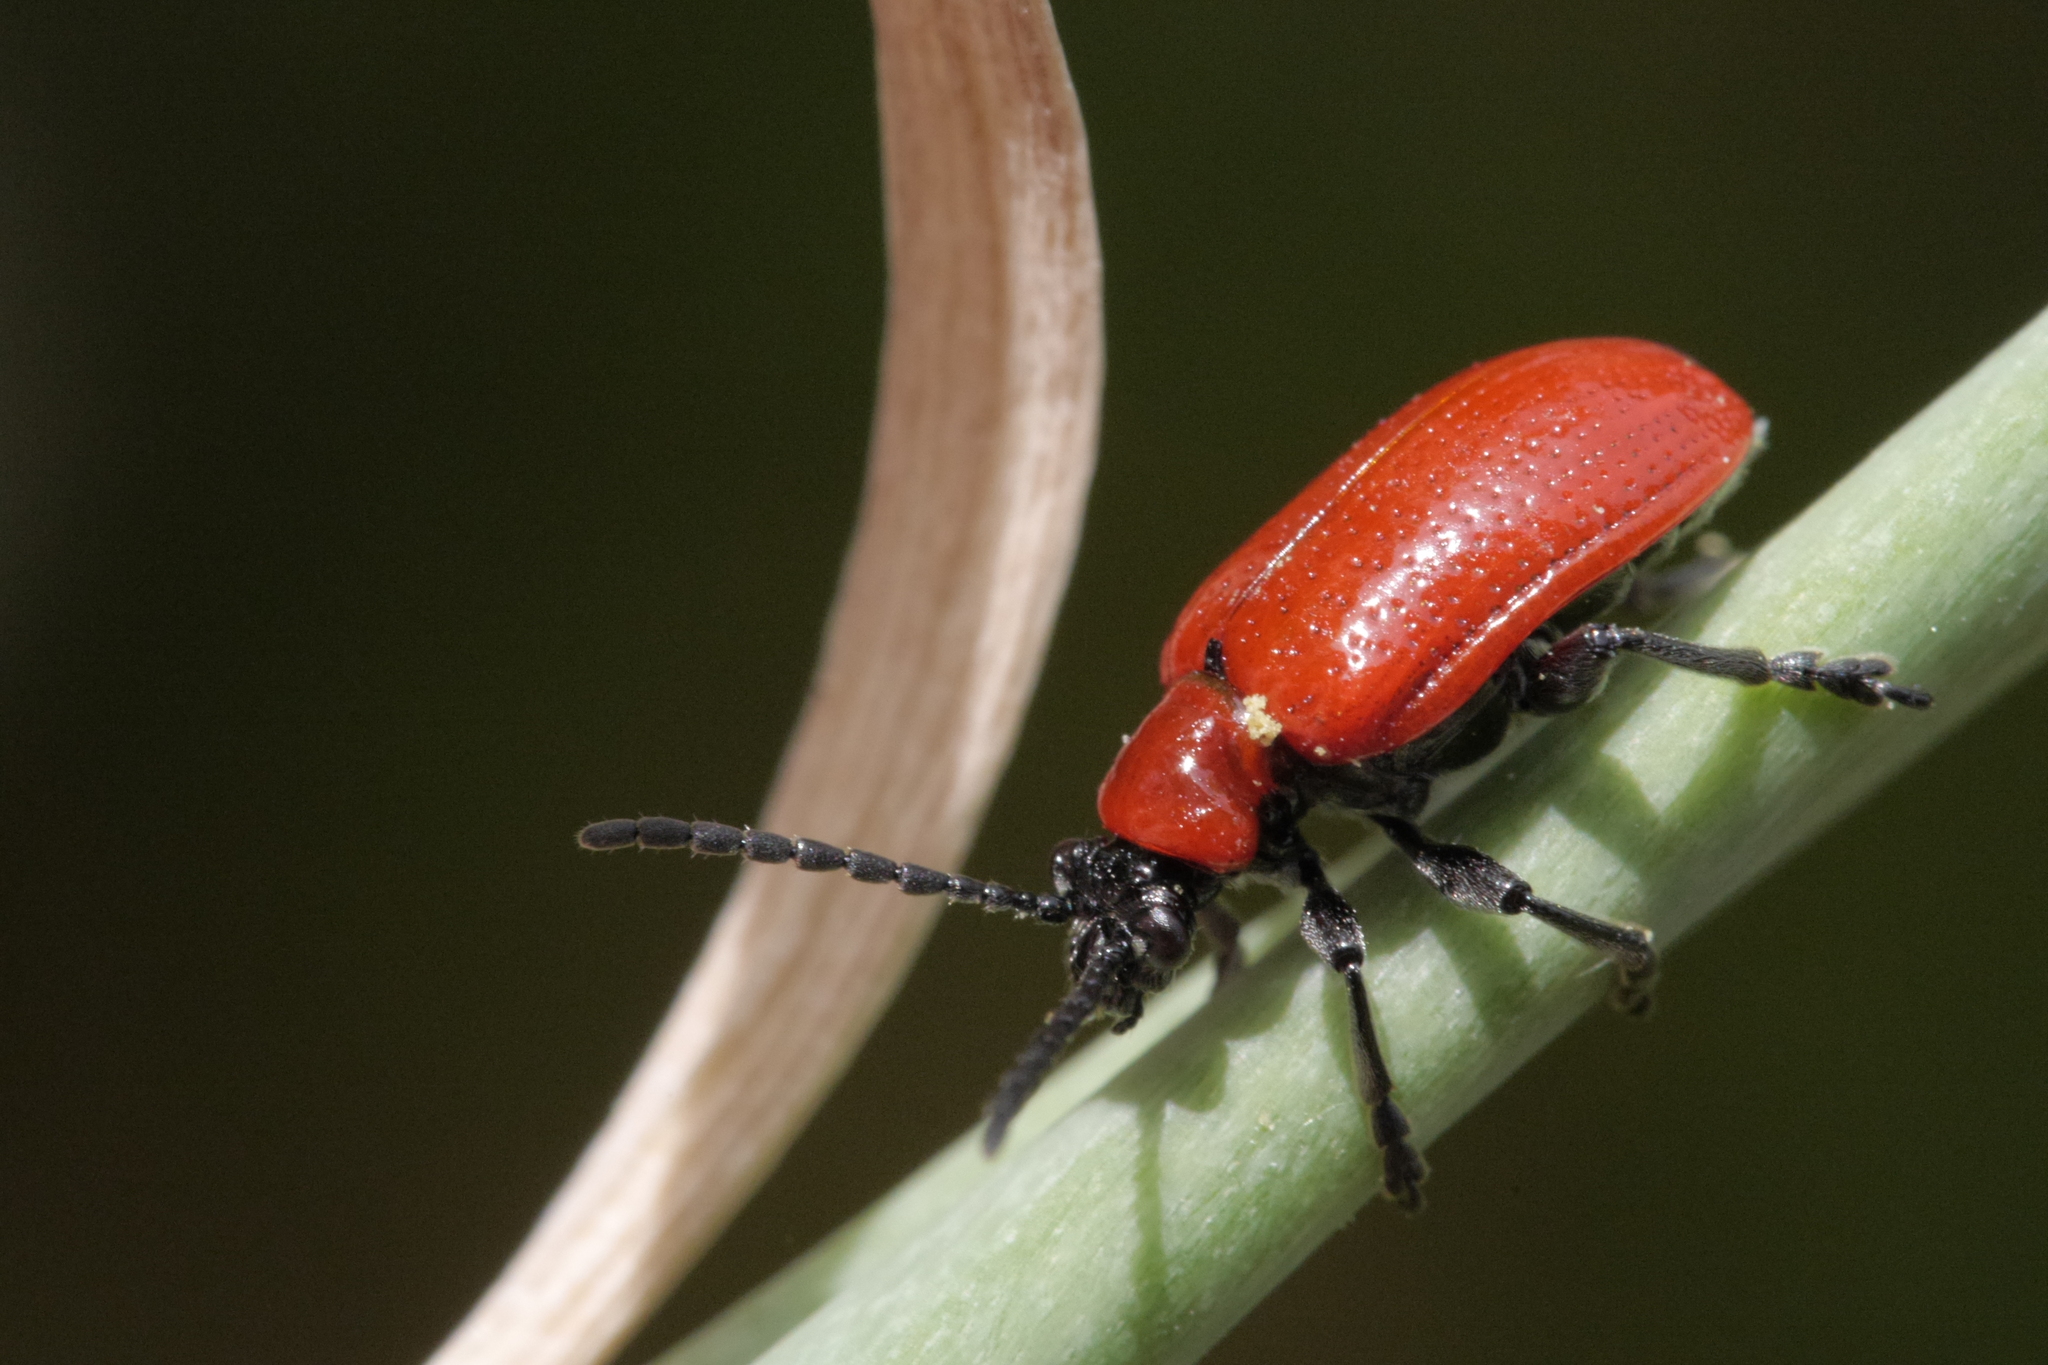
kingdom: Animalia
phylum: Arthropoda
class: Insecta
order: Coleoptera
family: Chrysomelidae
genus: Lilioceris
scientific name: Lilioceris lilii
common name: Lily beetle
